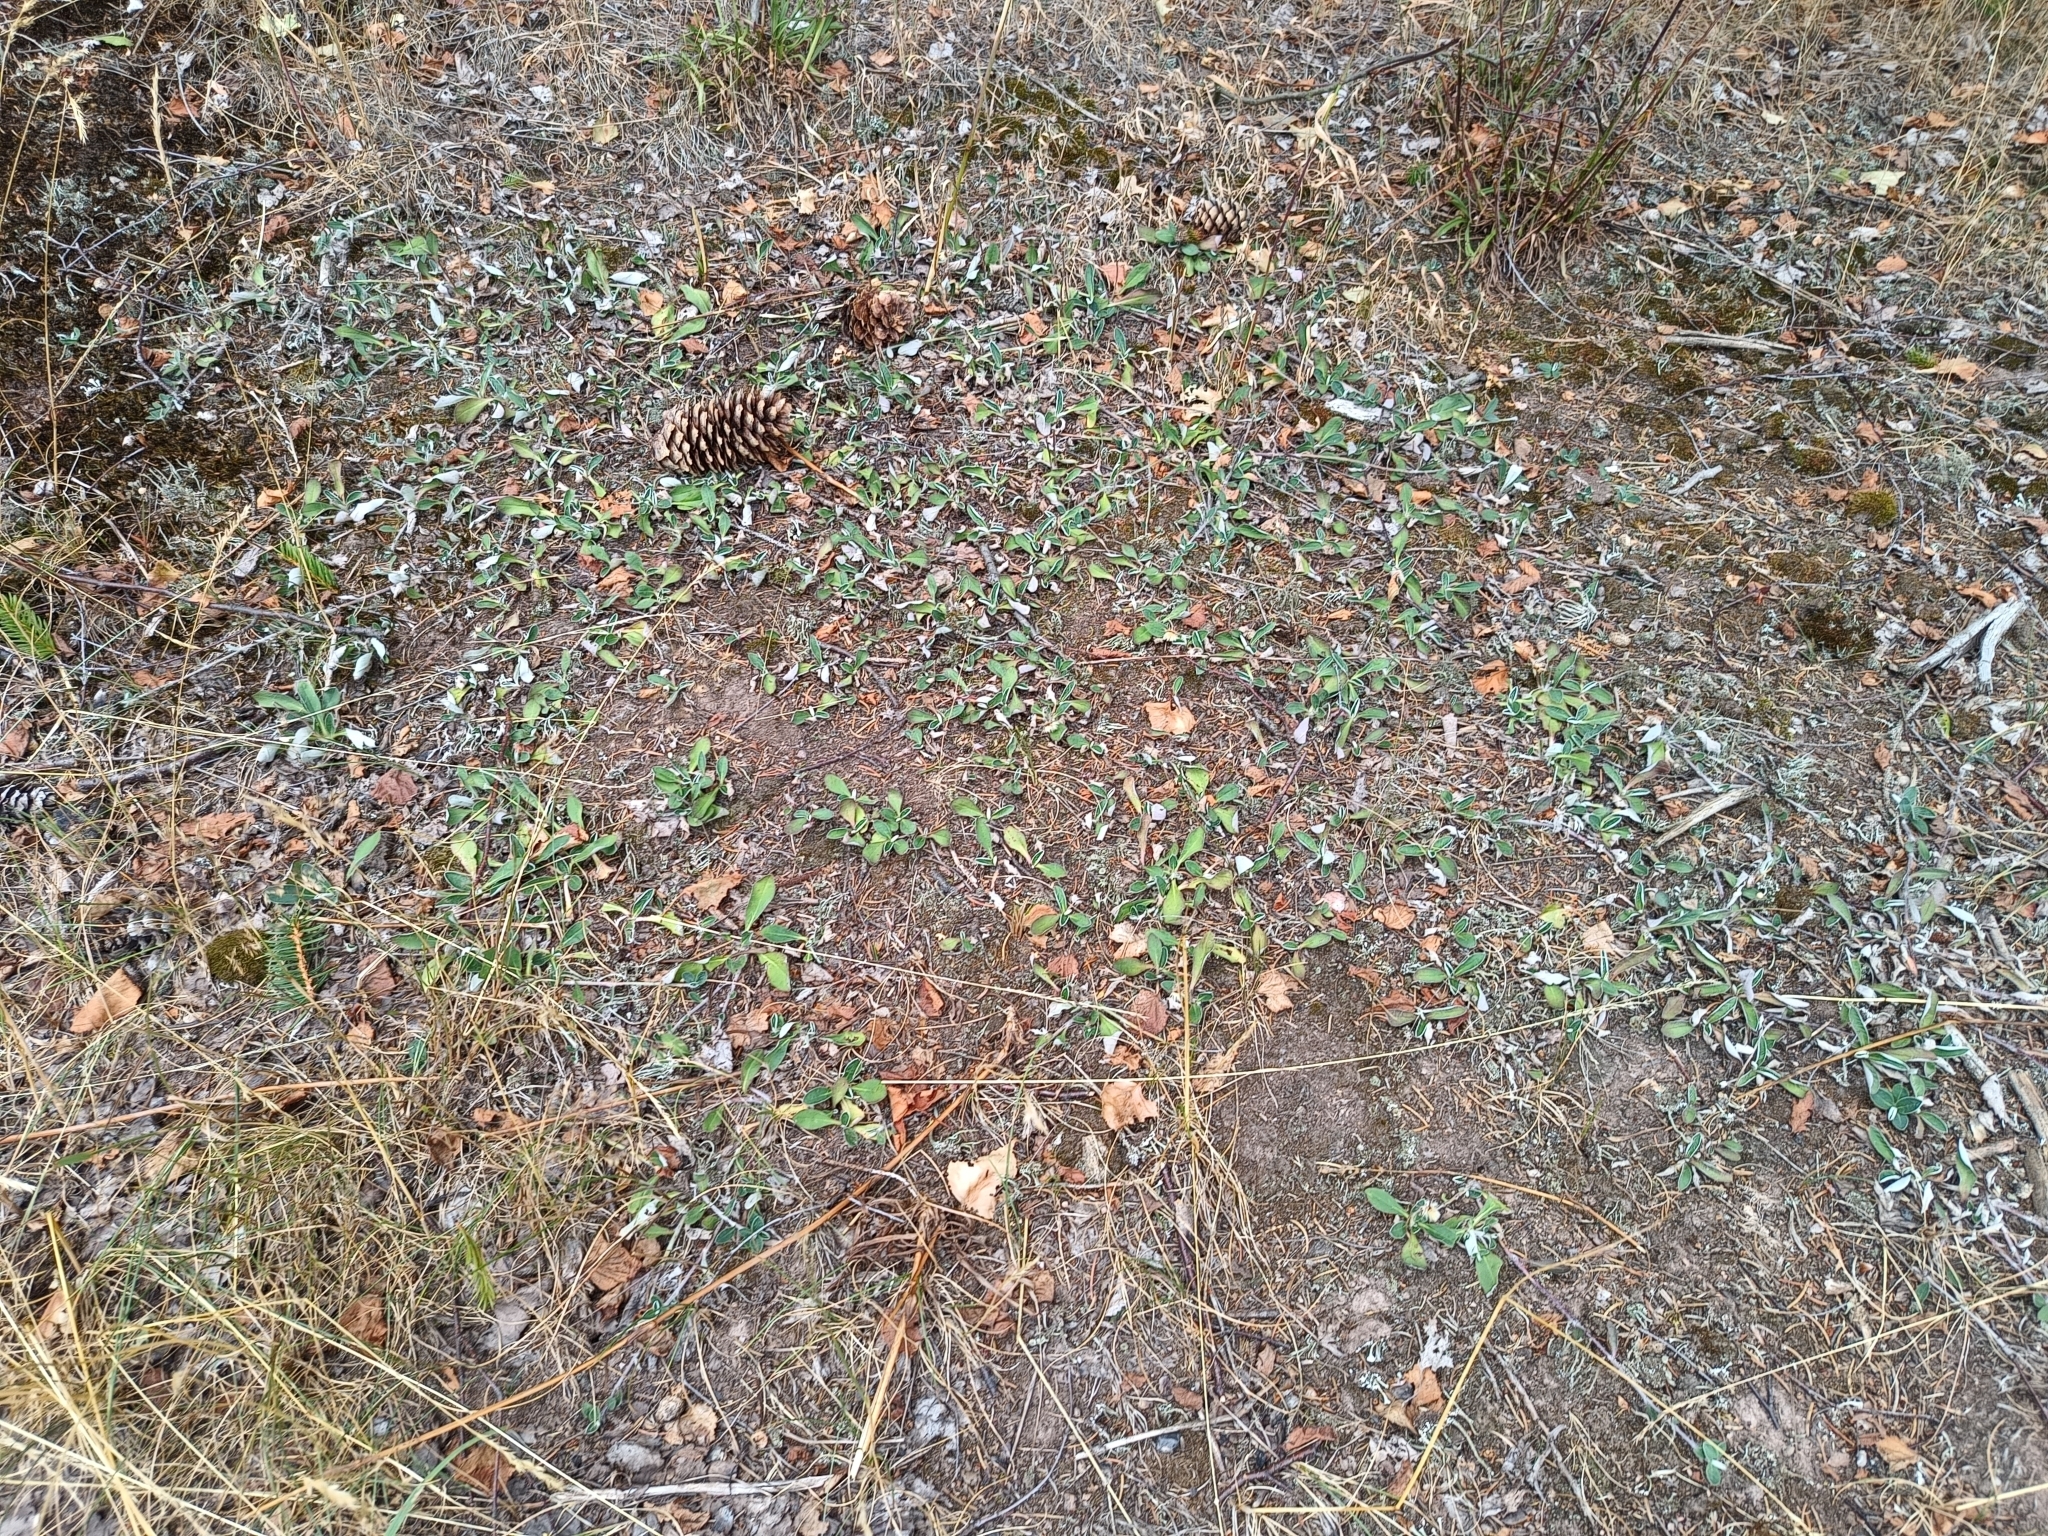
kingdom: Plantae
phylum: Tracheophyta
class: Magnoliopsida
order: Asterales
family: Asteraceae
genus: Pilosella
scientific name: Pilosella officinarum
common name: Mouse-ear hawkweed
